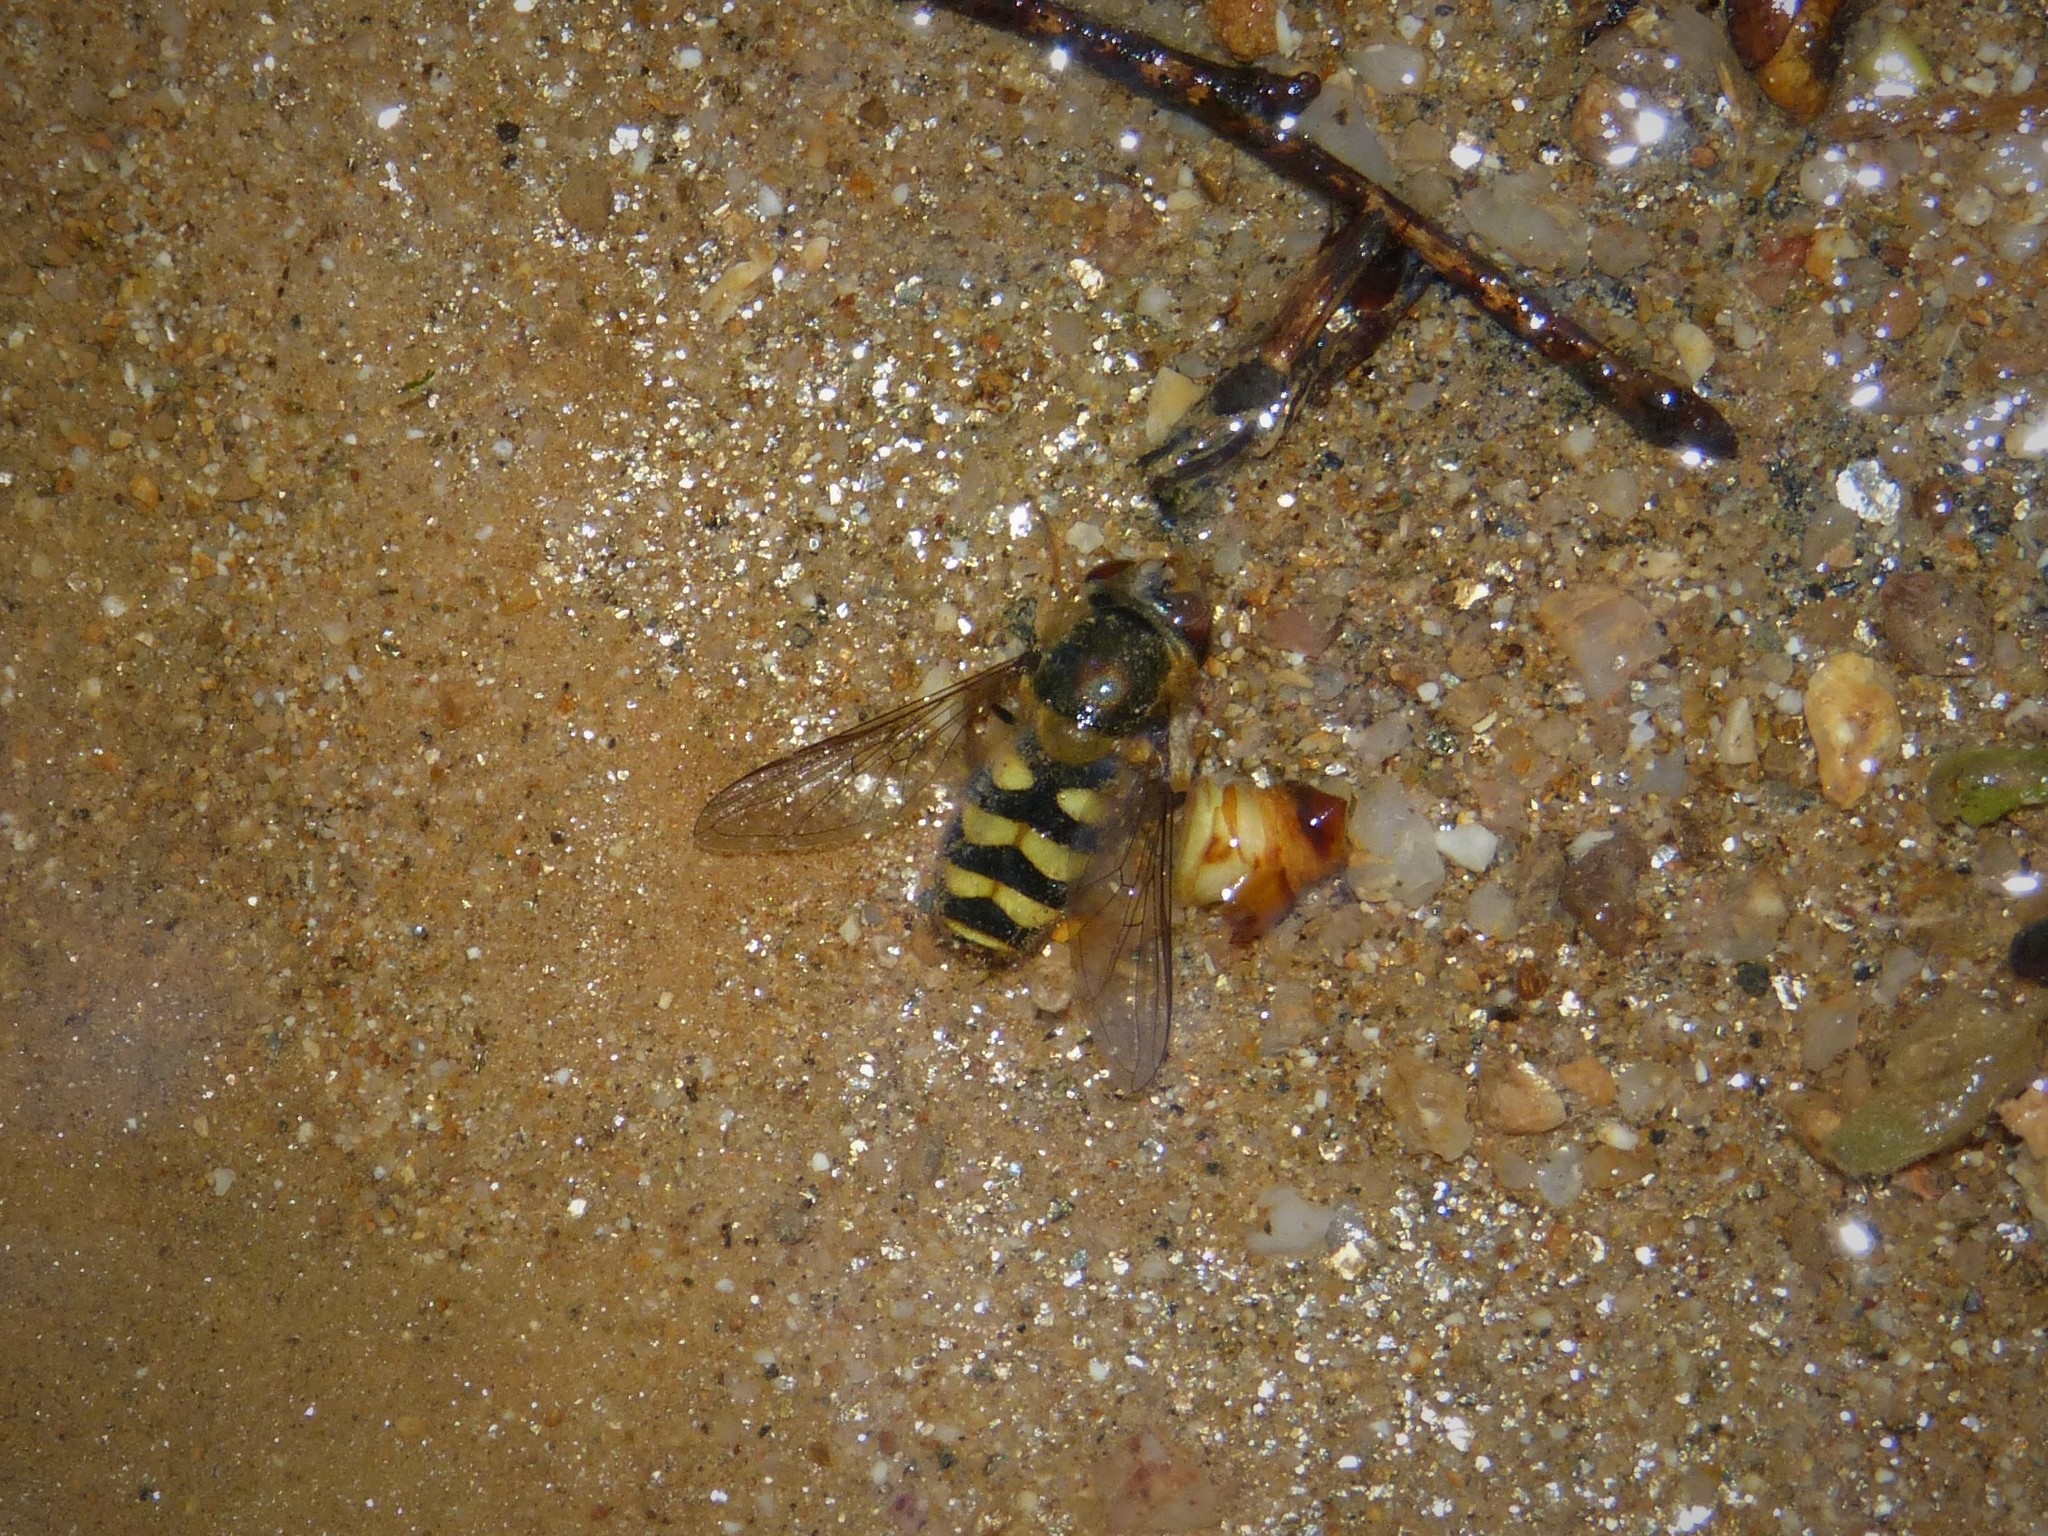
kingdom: Animalia
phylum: Arthropoda
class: Insecta
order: Diptera
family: Syrphidae
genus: Syrphus
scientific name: Syrphus
